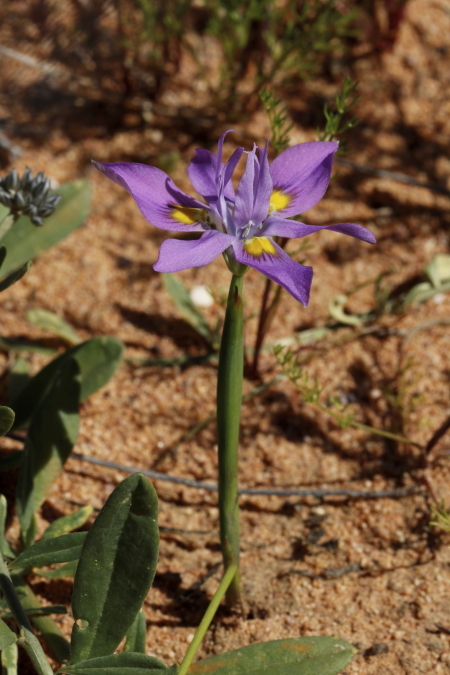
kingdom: Plantae
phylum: Tracheophyta
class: Liliopsida
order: Asparagales
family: Iridaceae
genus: Moraea
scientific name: Moraea setifolia
